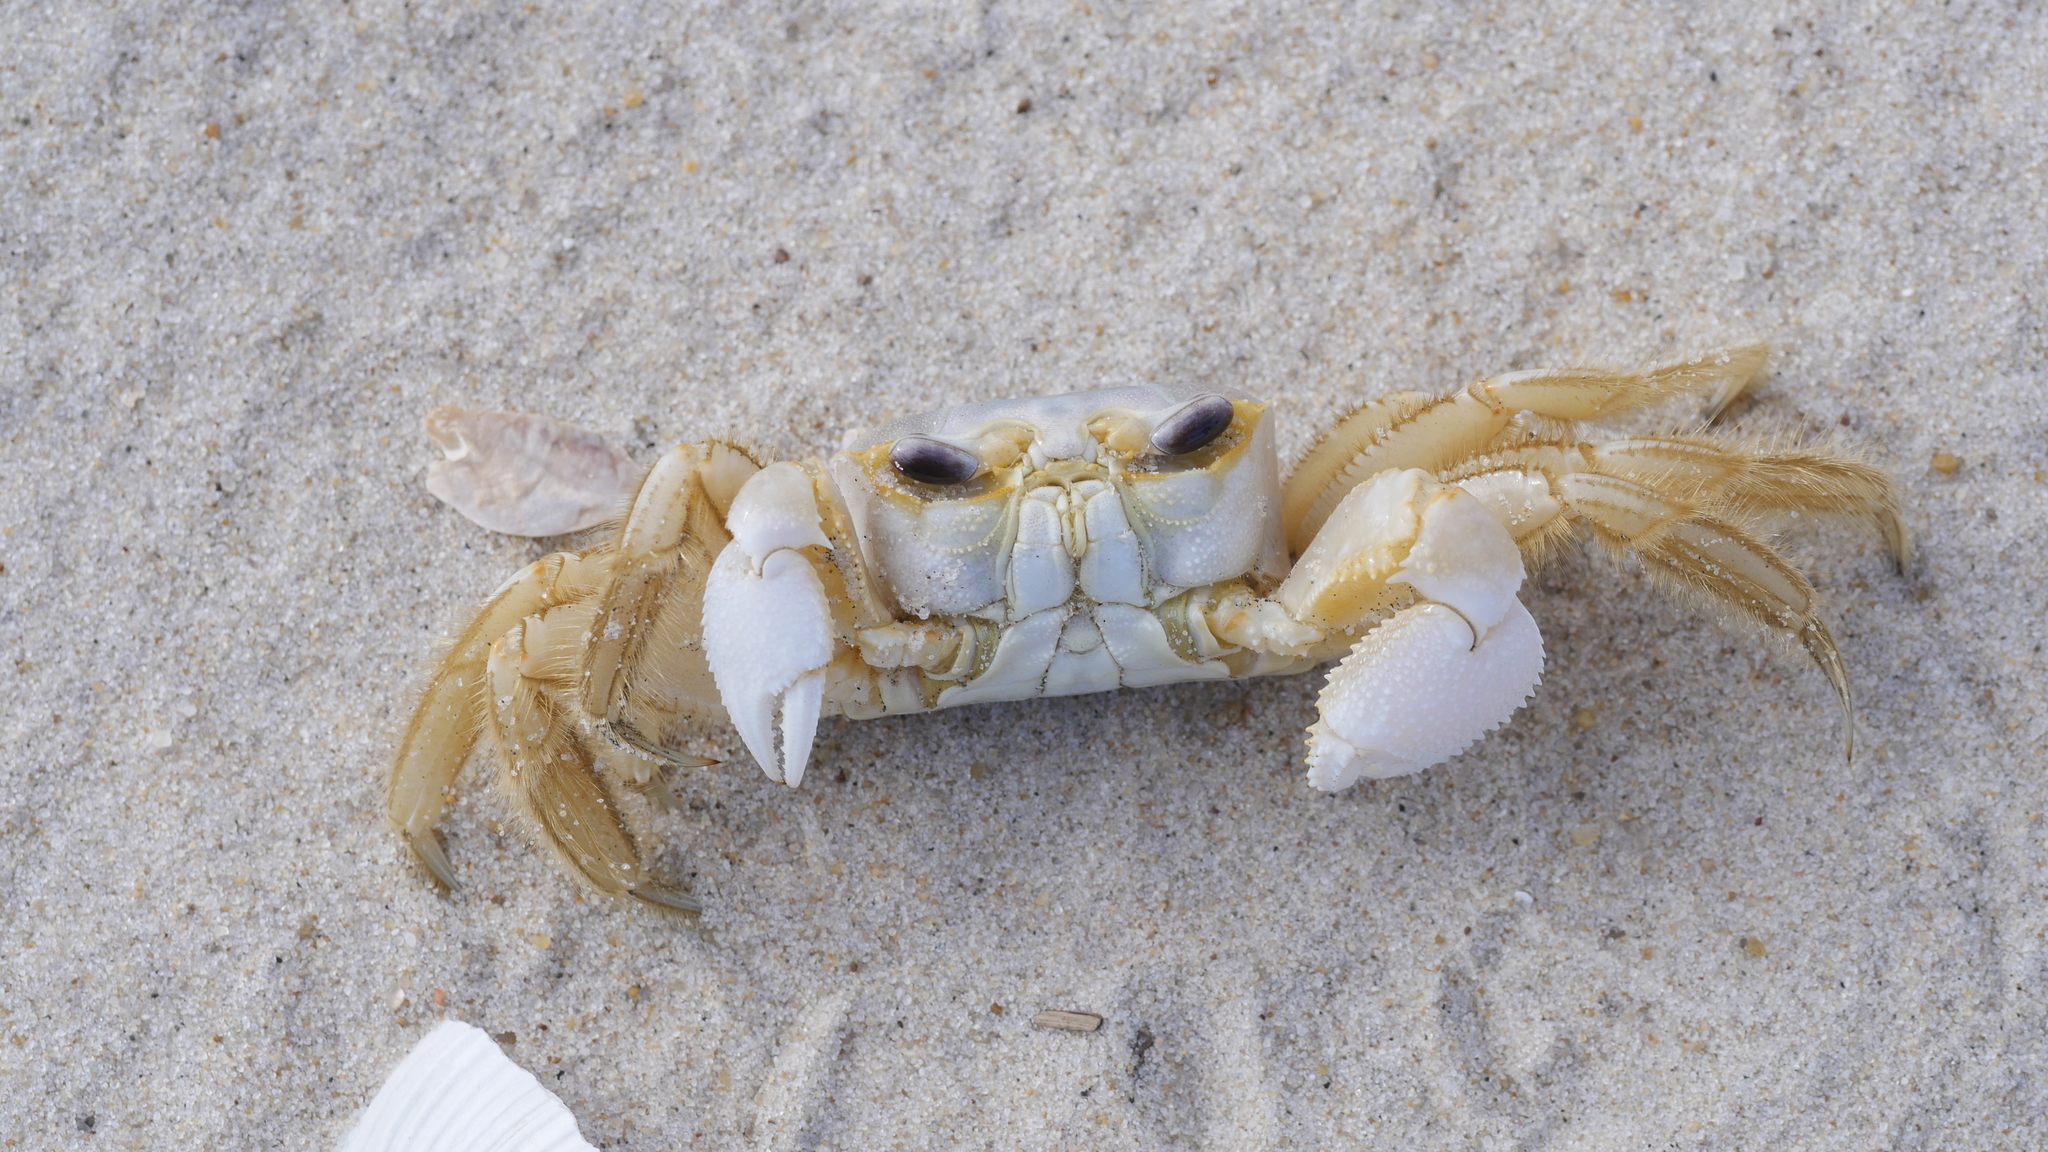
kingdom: Animalia
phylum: Arthropoda
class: Malacostraca
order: Decapoda
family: Ocypodidae
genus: Ocypode
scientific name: Ocypode quadrata
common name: Ghost crab
